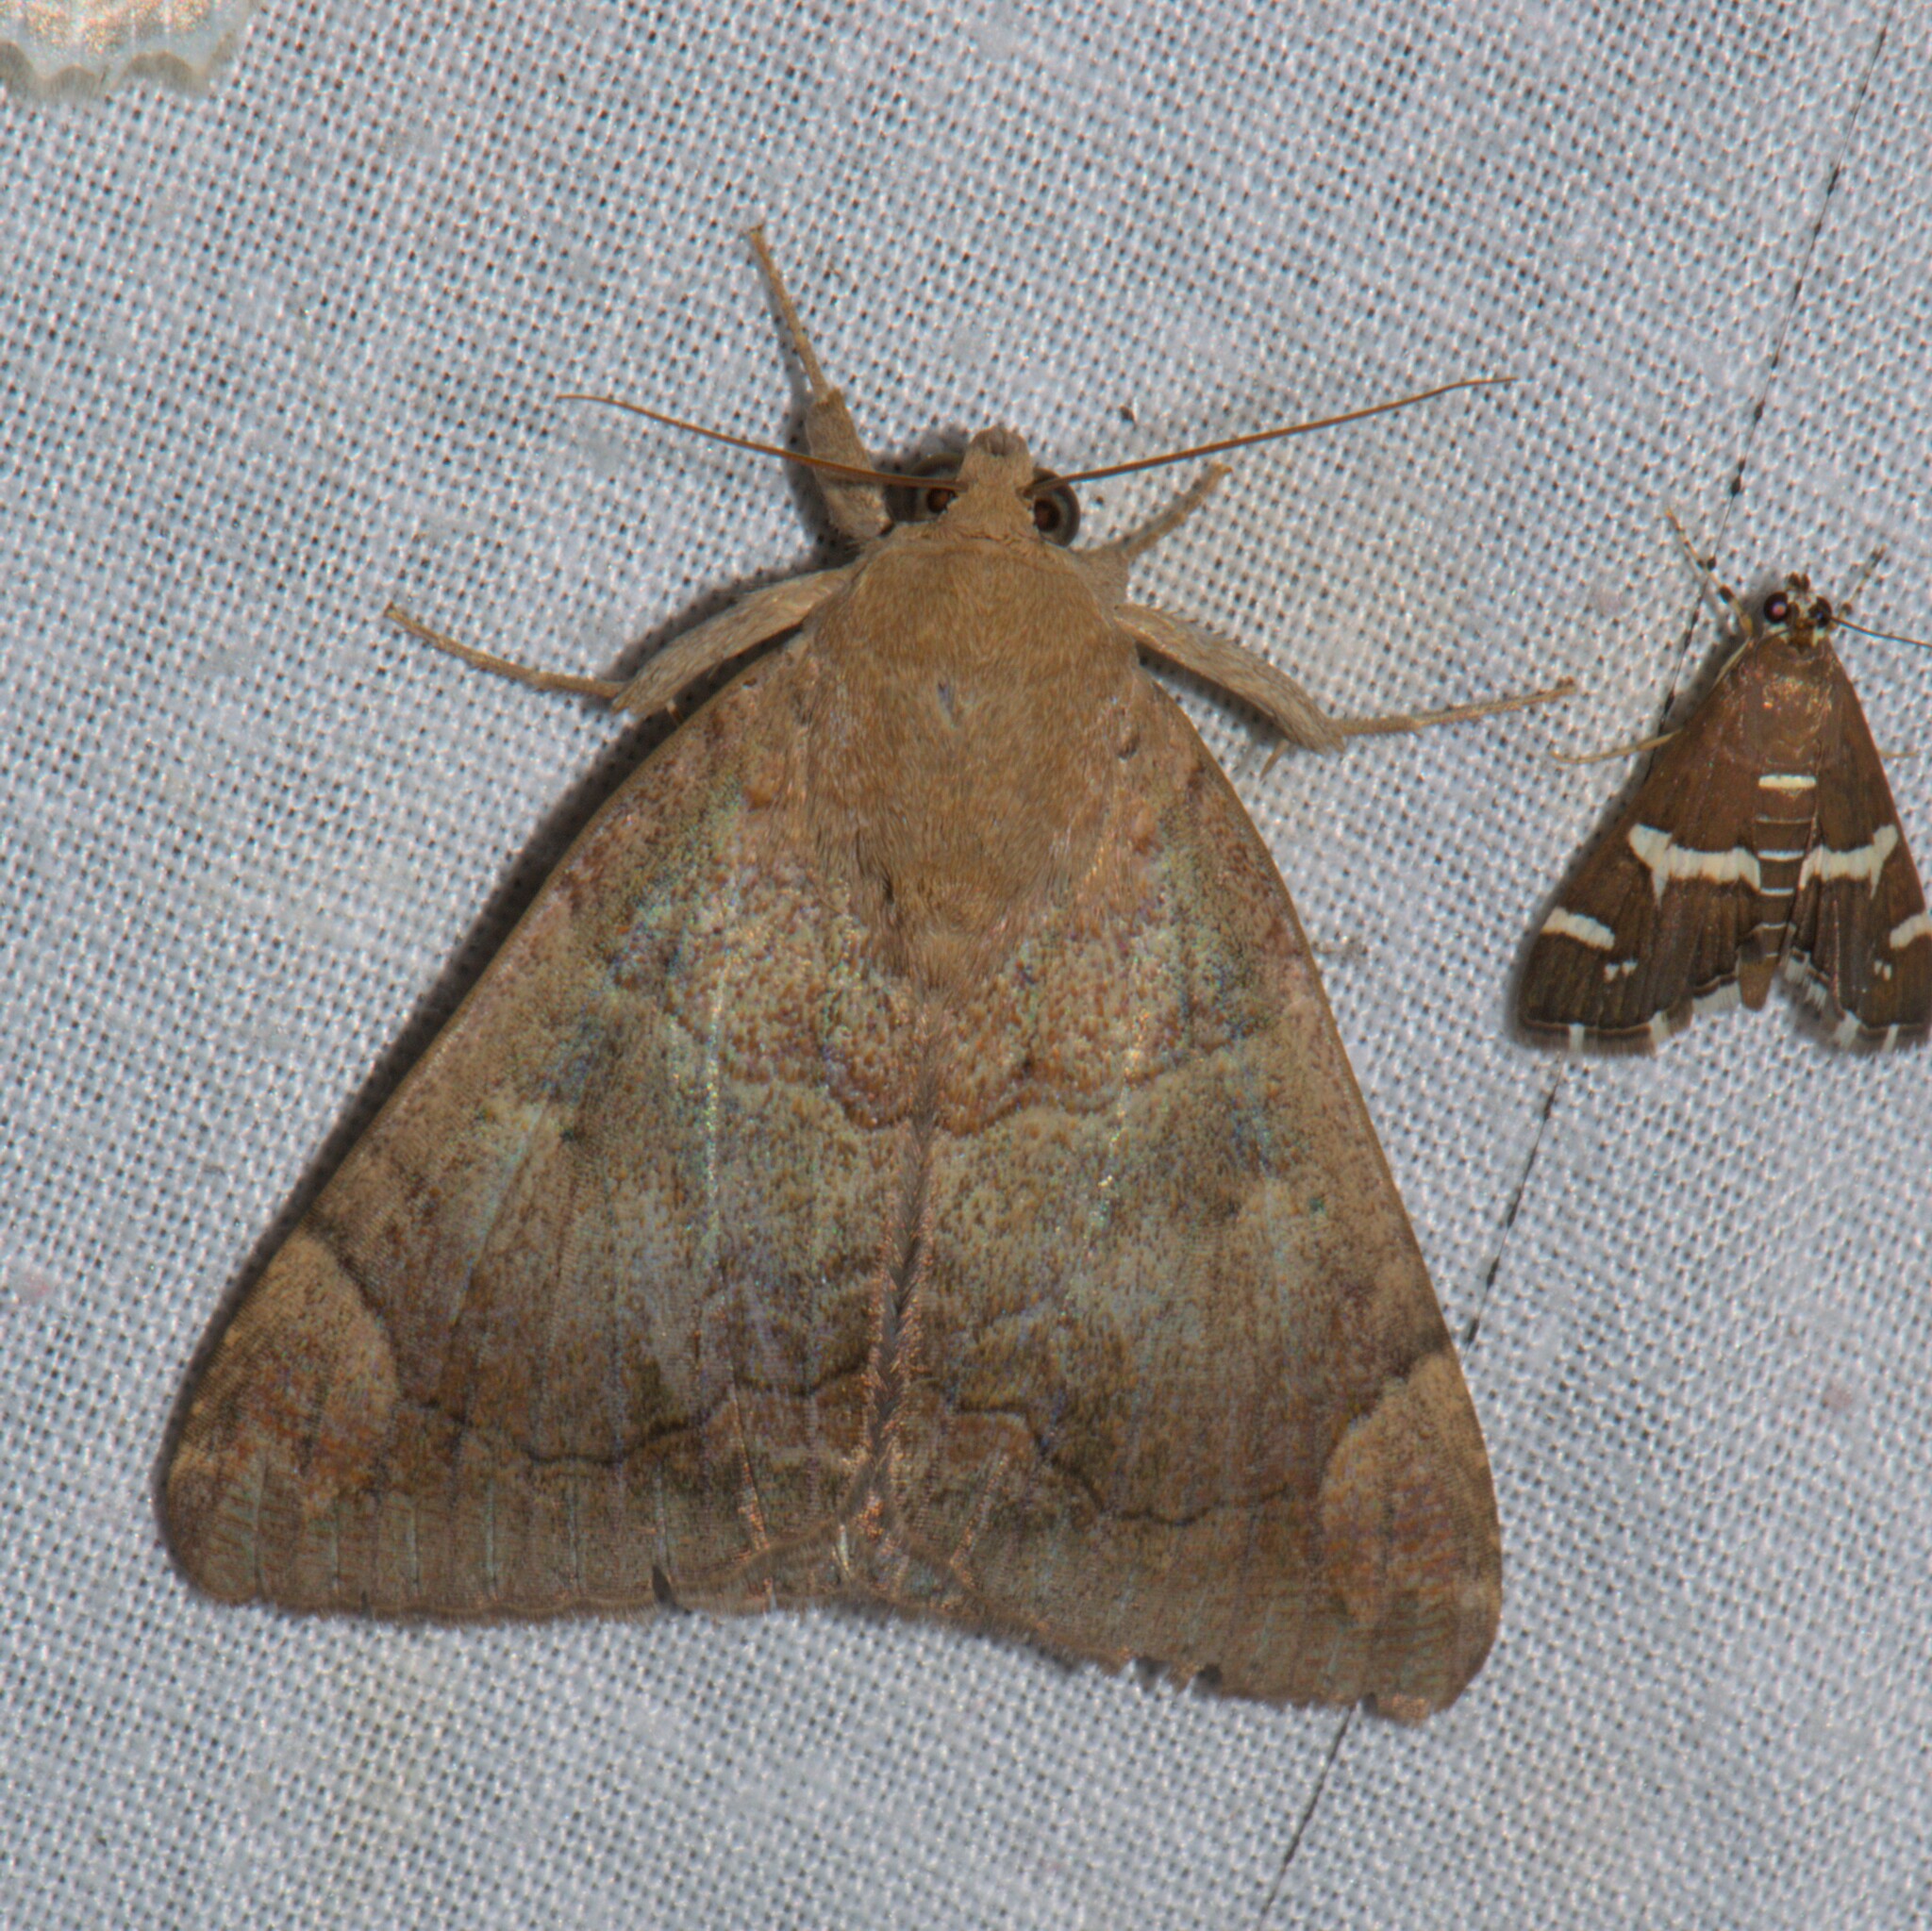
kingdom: Animalia
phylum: Arthropoda
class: Insecta
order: Lepidoptera
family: Erebidae
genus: Achaea
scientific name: Achaea janata
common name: Croton caterpillar
